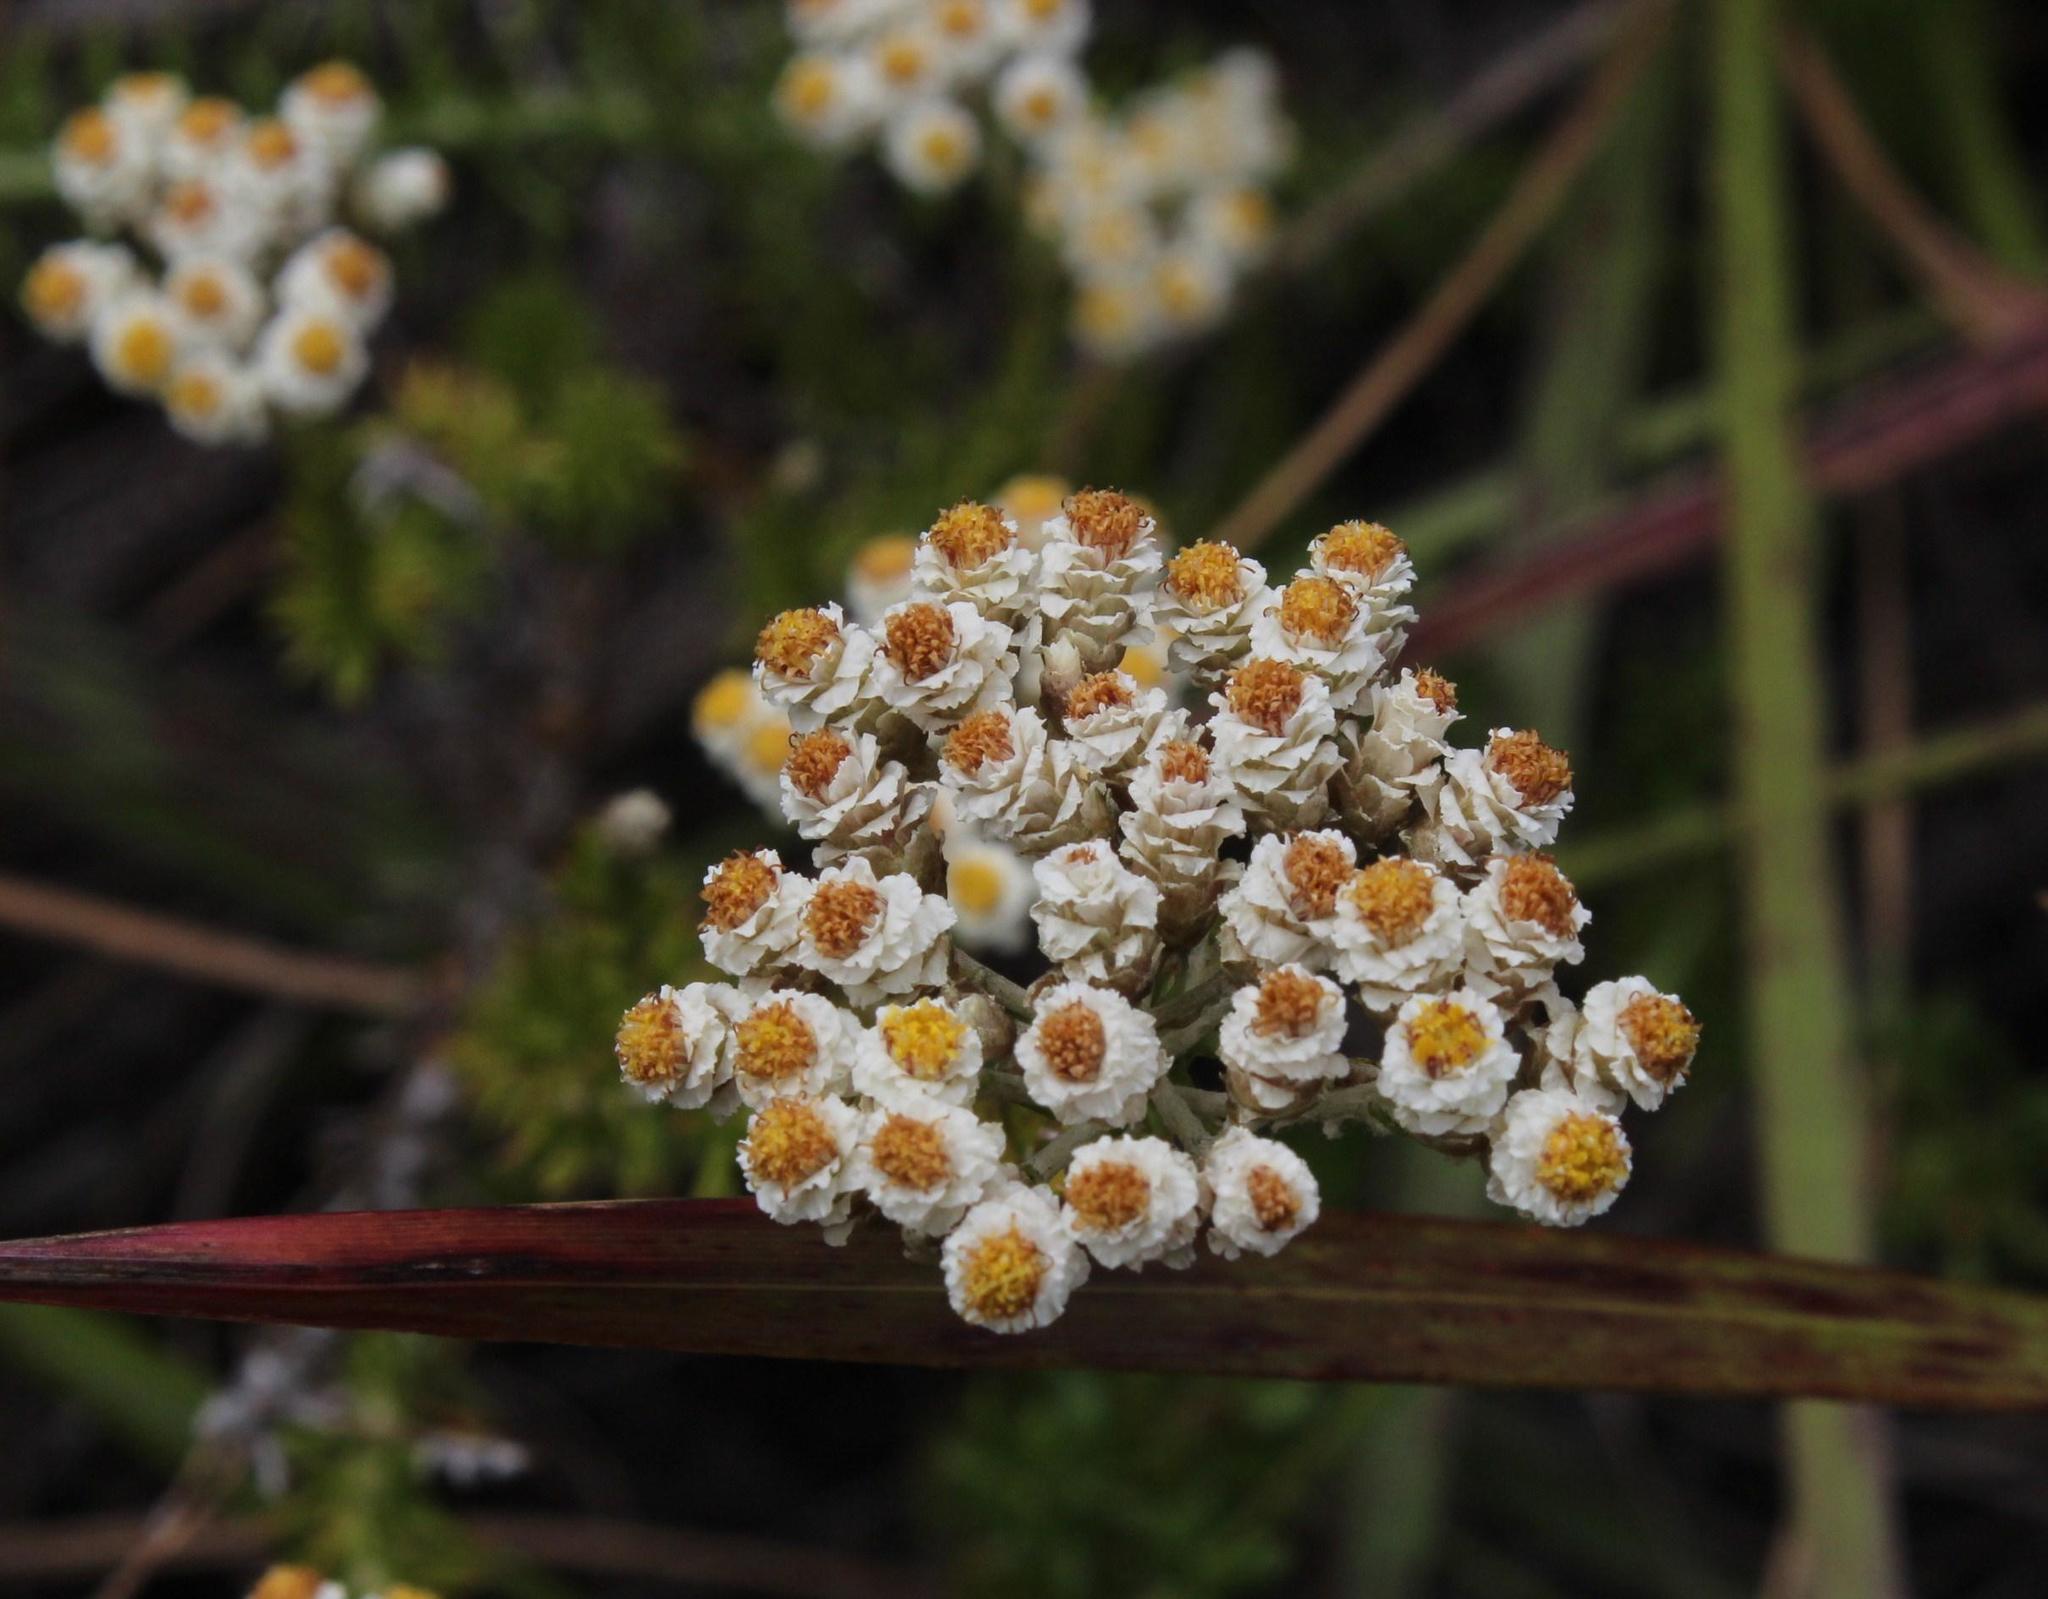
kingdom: Plantae
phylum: Tracheophyta
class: Magnoliopsida
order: Asterales
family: Asteraceae
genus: Helichrysum
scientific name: Helichrysum teretifolium
